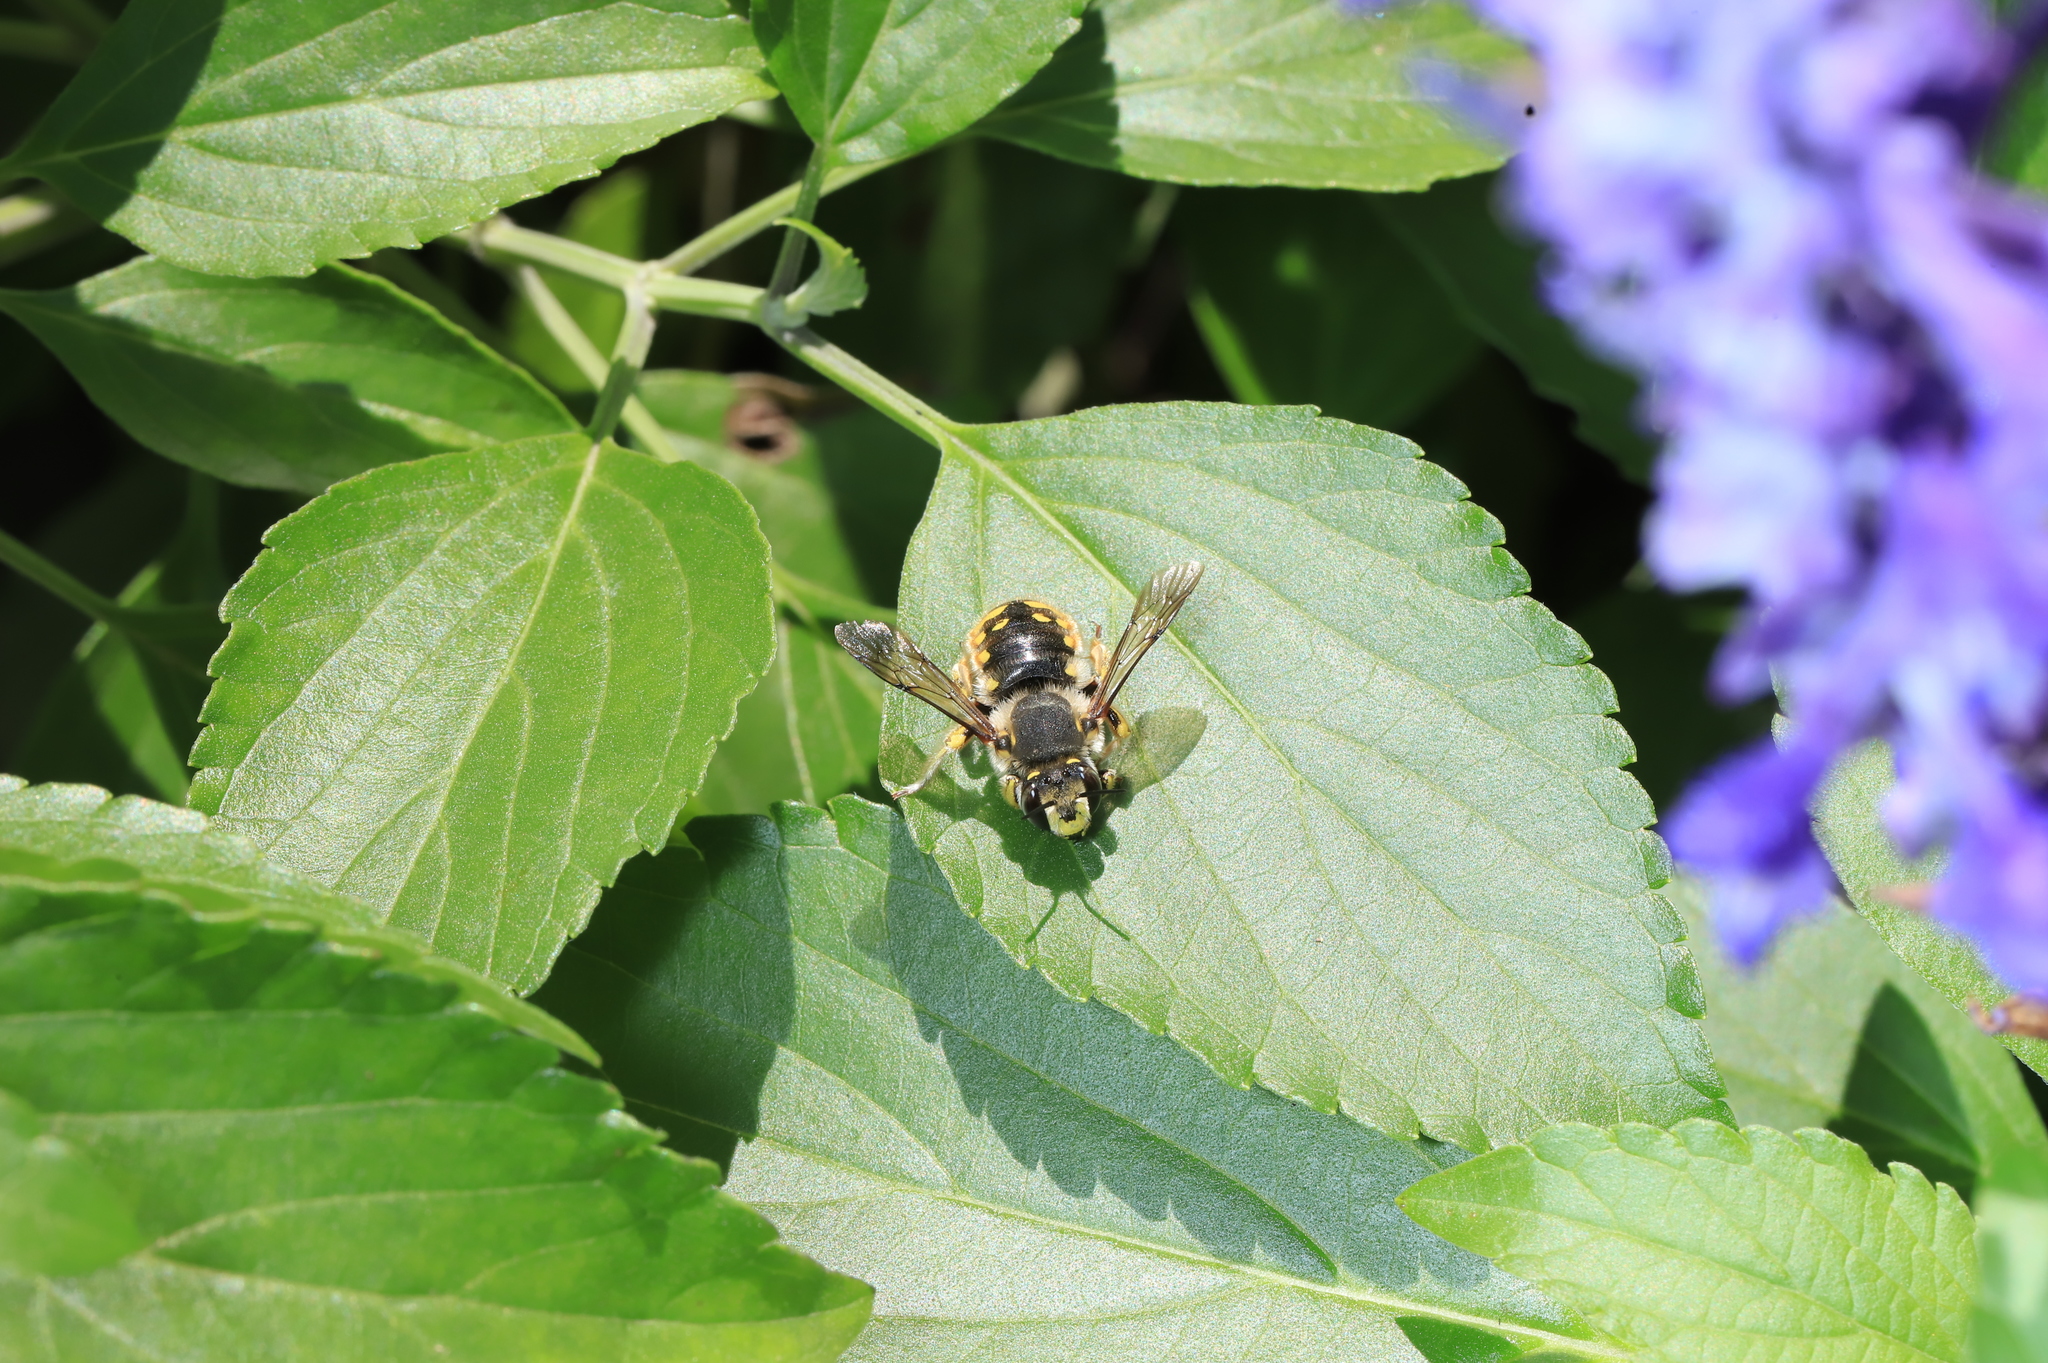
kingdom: Animalia
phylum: Arthropoda
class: Insecta
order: Hymenoptera
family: Megachilidae
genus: Anthidium
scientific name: Anthidium manicatum
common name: Wool carder bee
